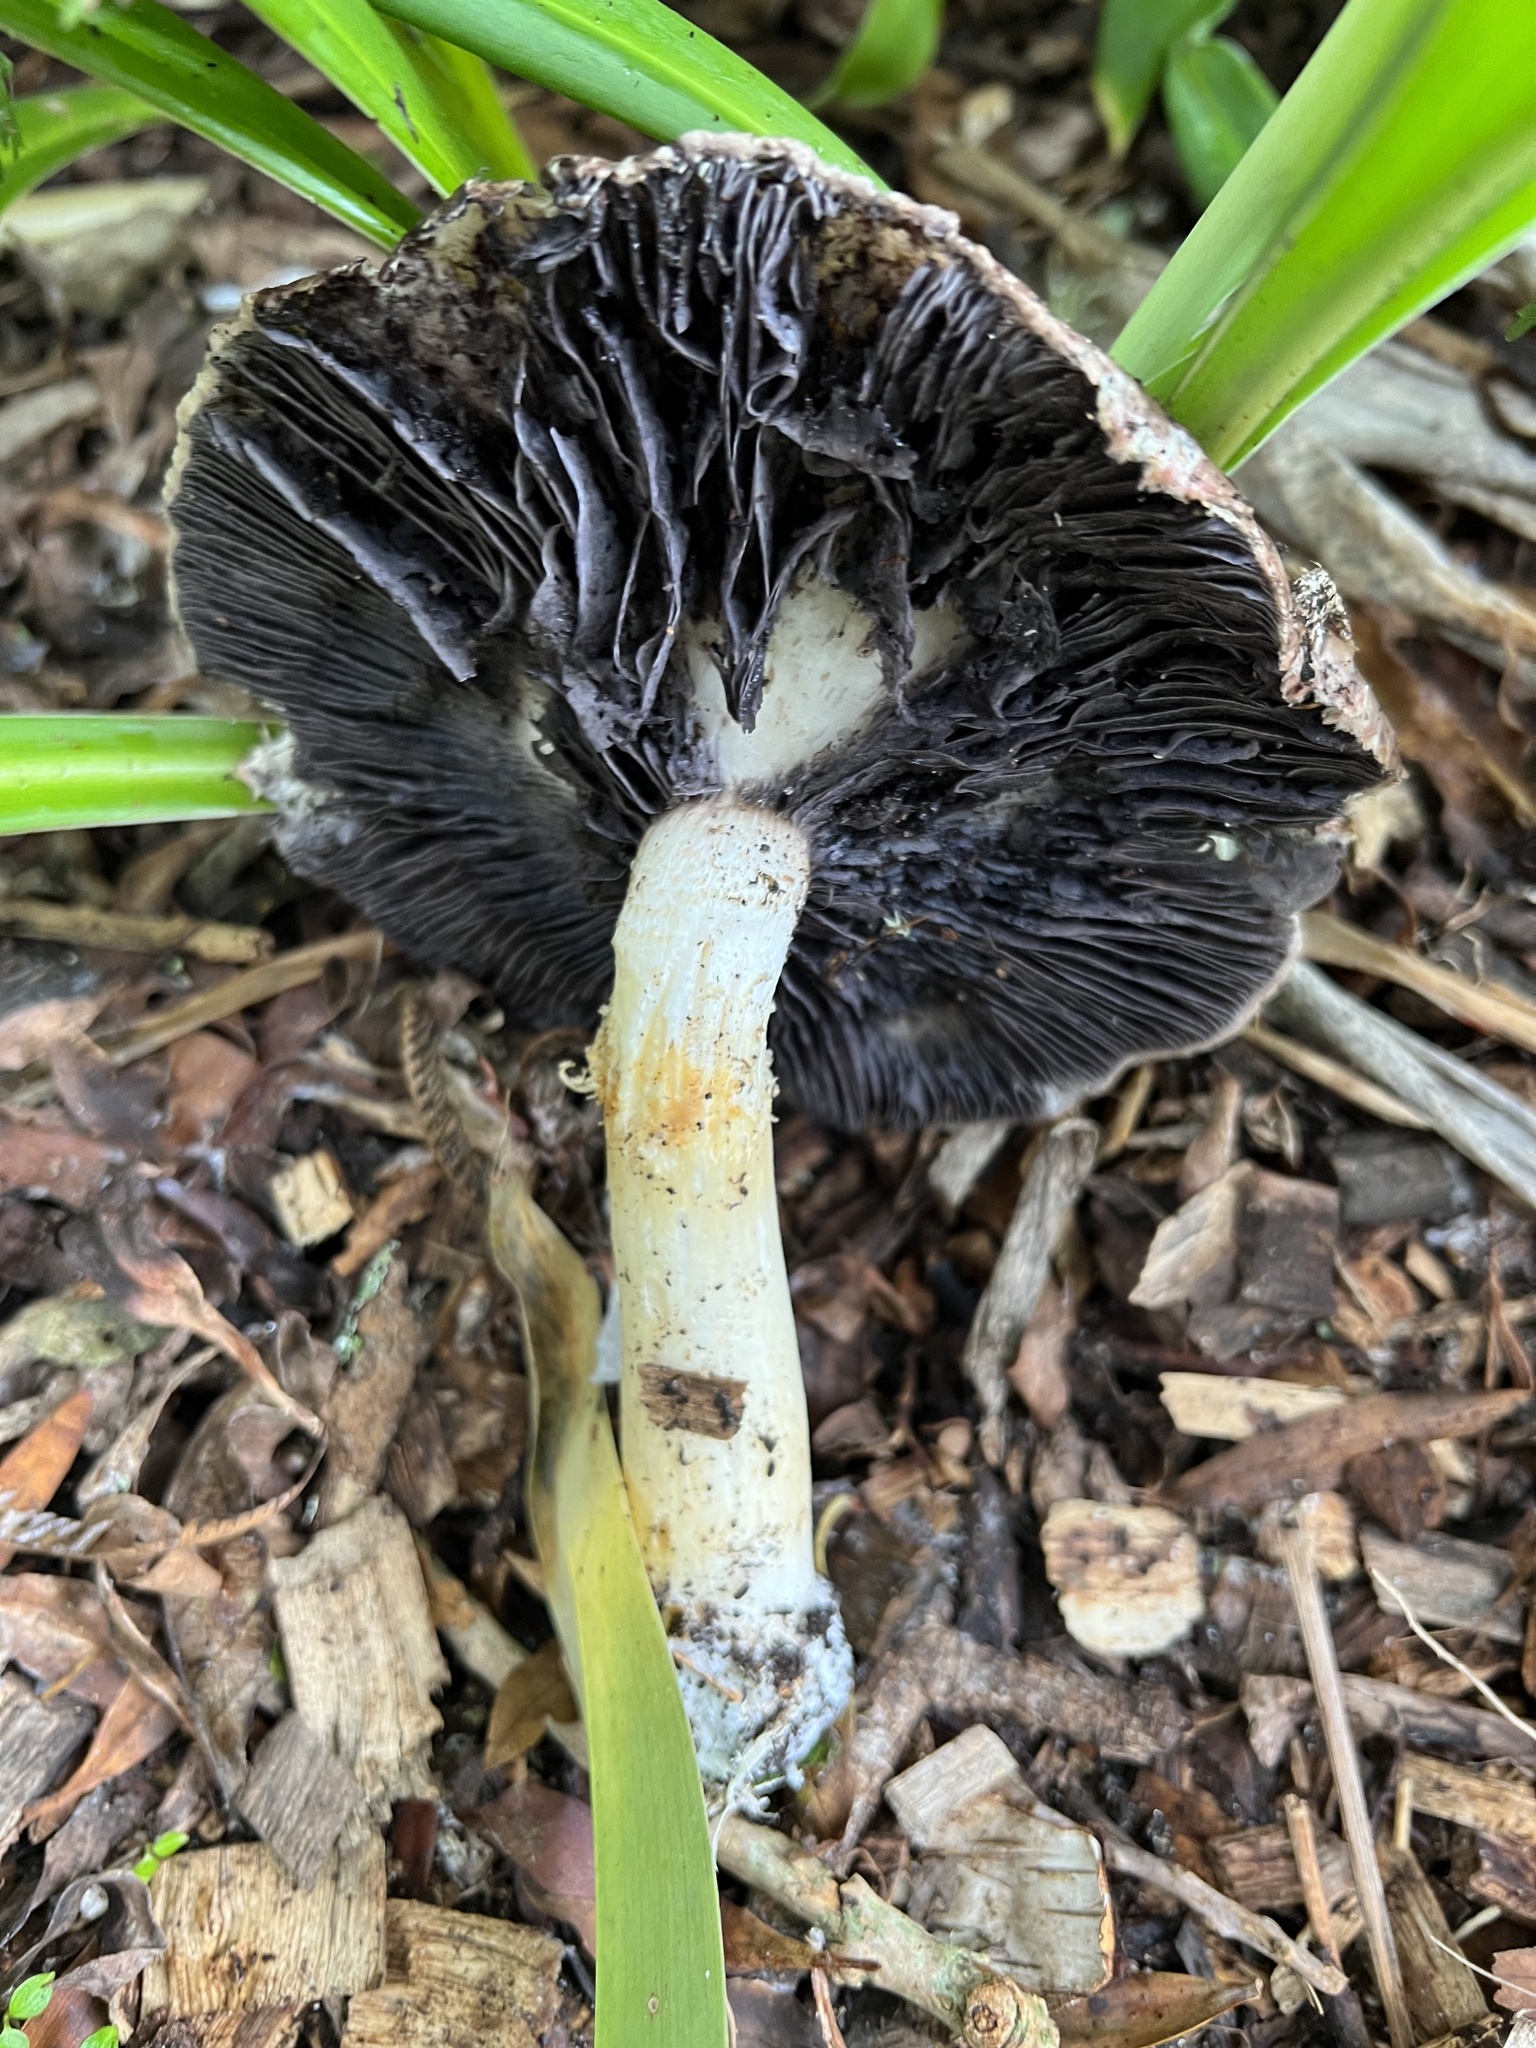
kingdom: Fungi
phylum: Basidiomycota
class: Agaricomycetes
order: Agaricales
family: Strophariaceae
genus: Stropharia
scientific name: Stropharia rugosoannulata
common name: Wine roundhead
